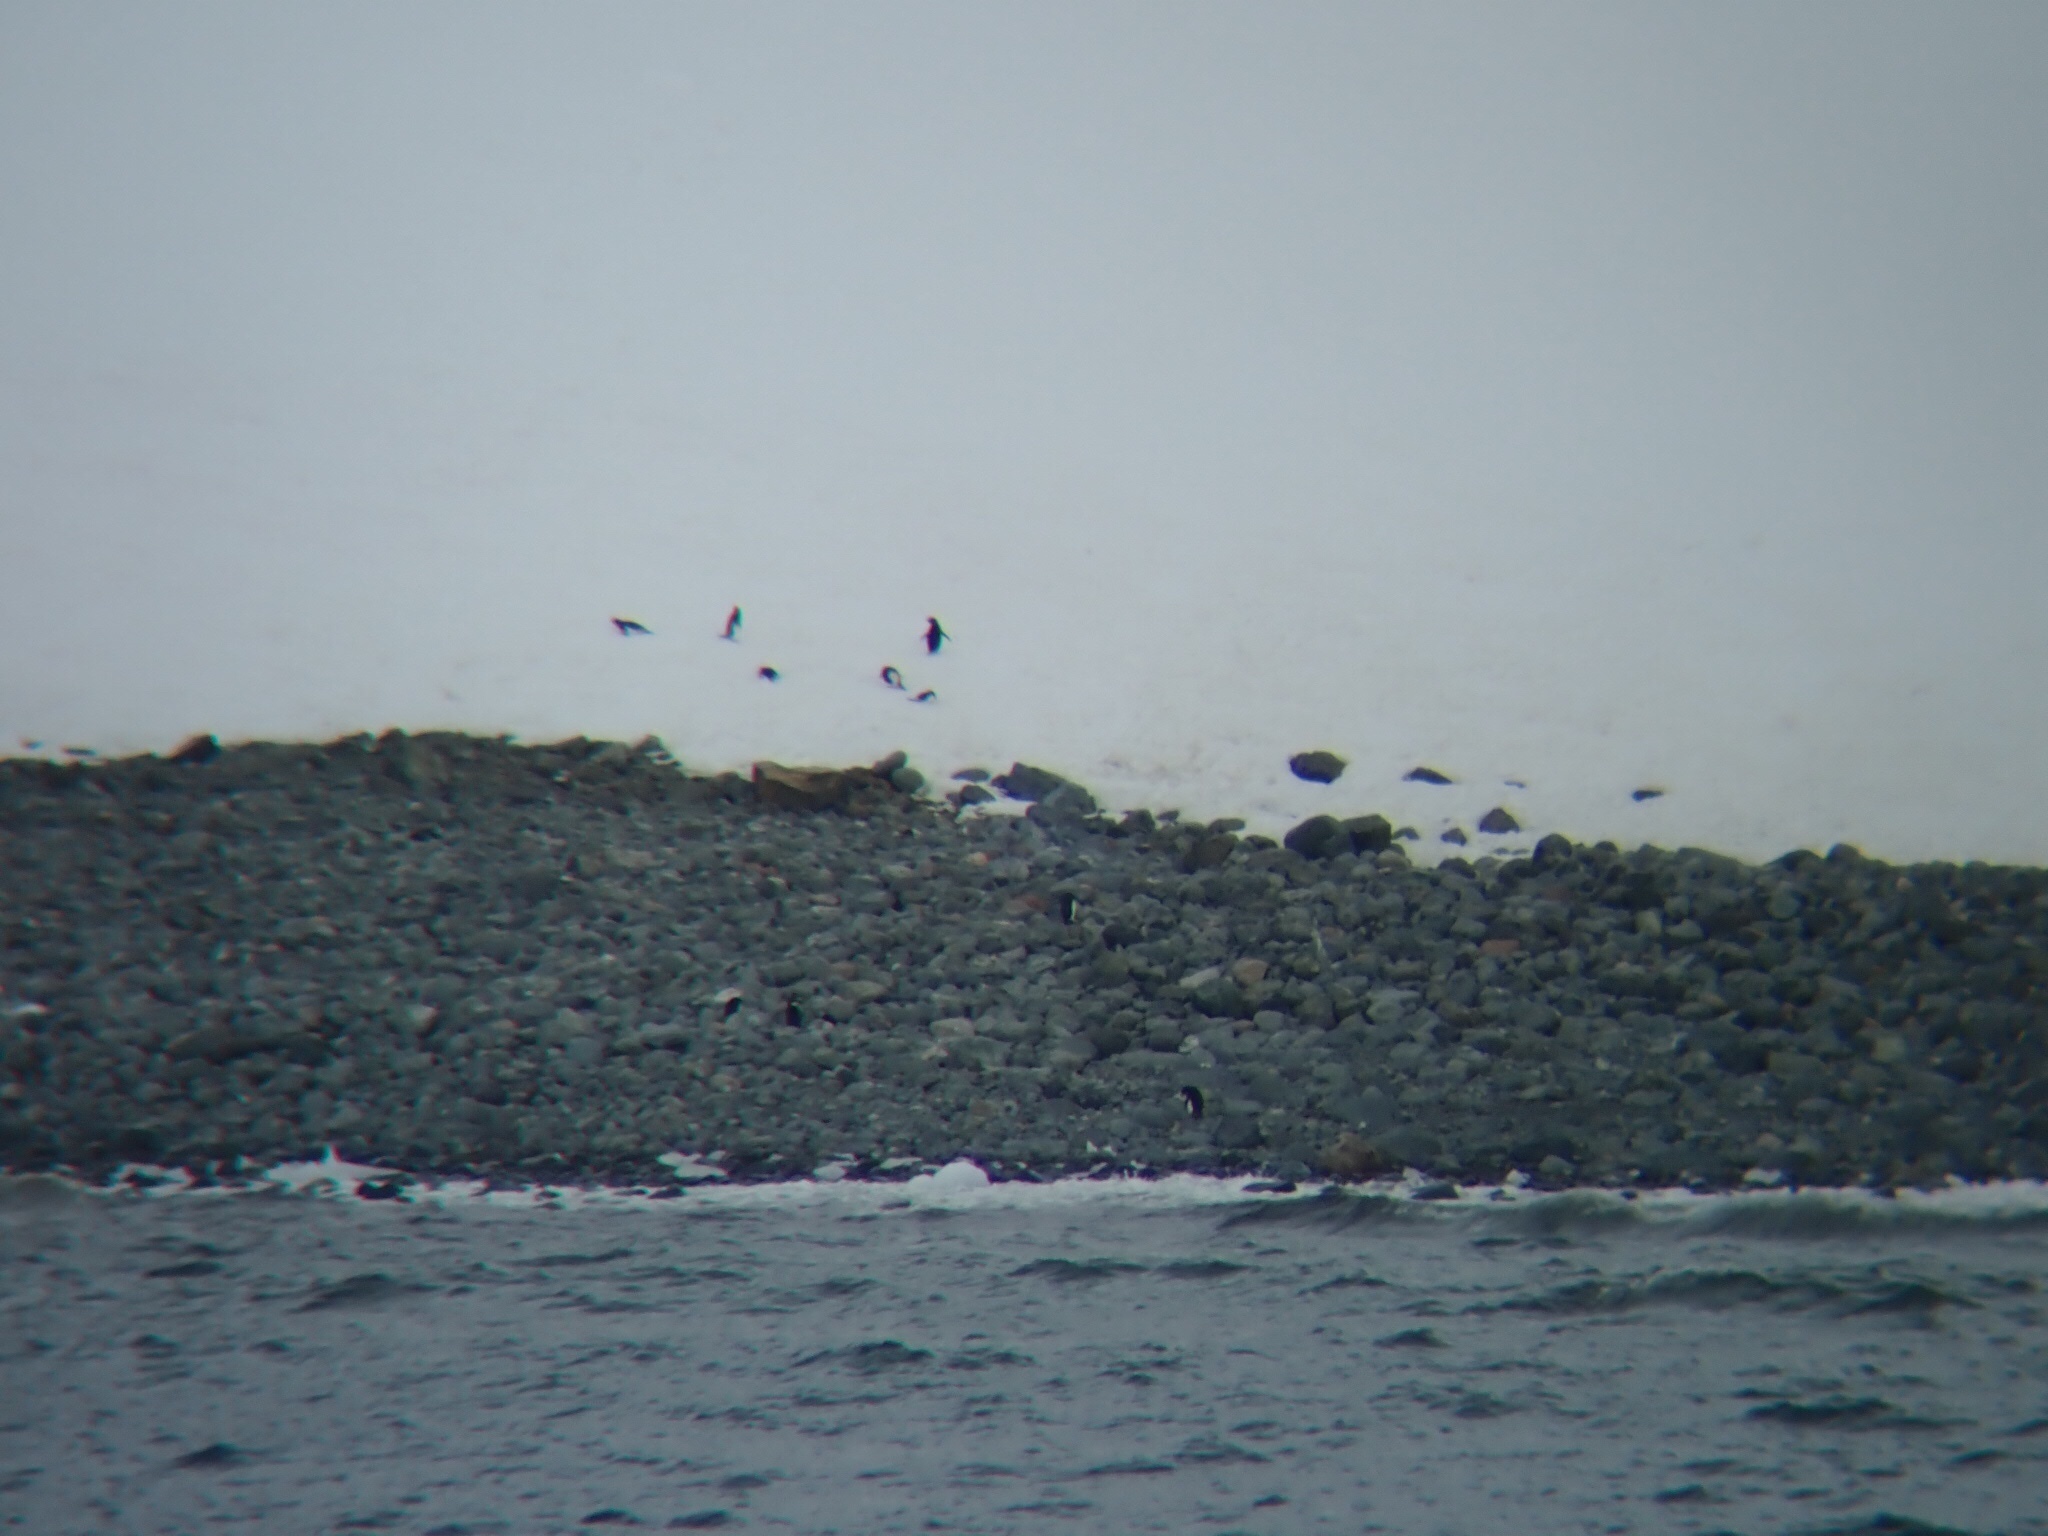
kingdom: Animalia
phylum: Chordata
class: Aves
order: Sphenisciformes
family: Spheniscidae
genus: Pygoscelis
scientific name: Pygoscelis adeliae
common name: Adelie penguin
